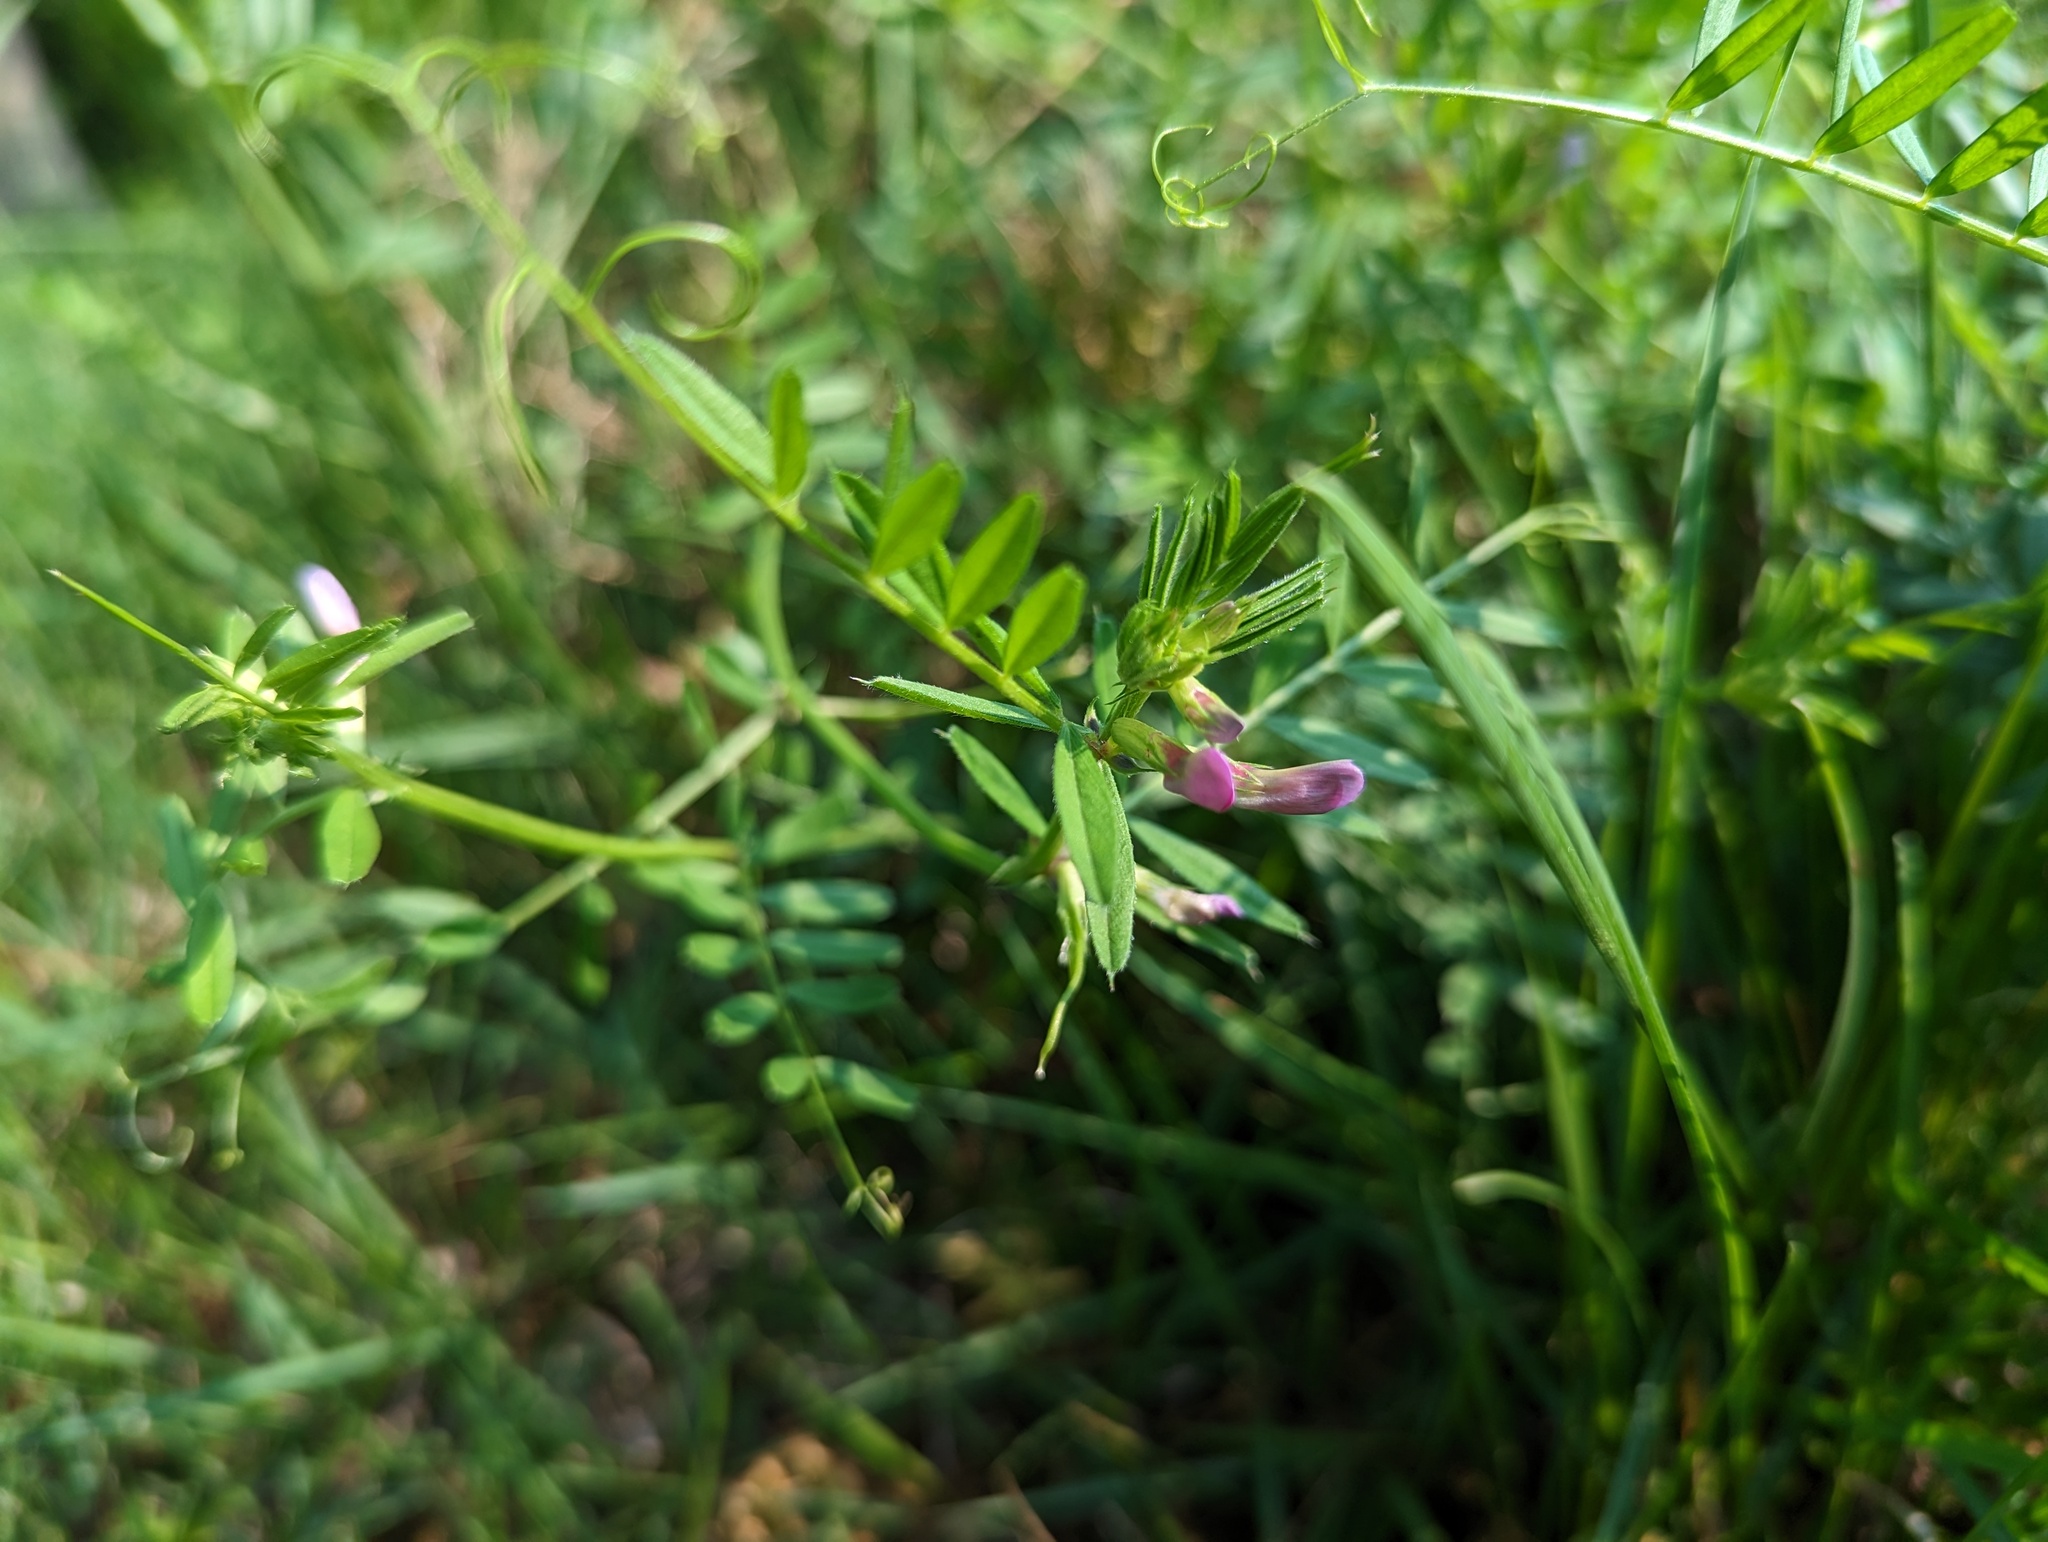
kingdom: Plantae
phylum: Tracheophyta
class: Magnoliopsida
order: Fabales
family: Fabaceae
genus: Vicia
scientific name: Vicia sativa
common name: Garden vetch
